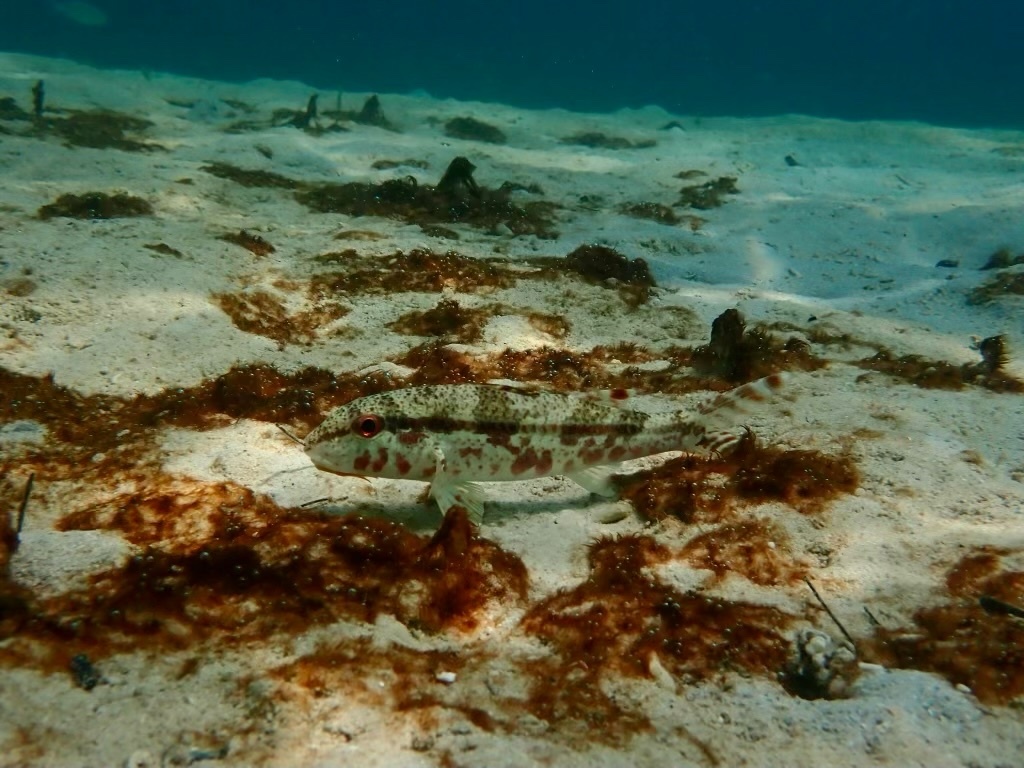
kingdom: Animalia
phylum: Chordata
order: Perciformes
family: Mullidae
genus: Upeneus
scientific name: Upeneus tragula
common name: Freckled goatfish
